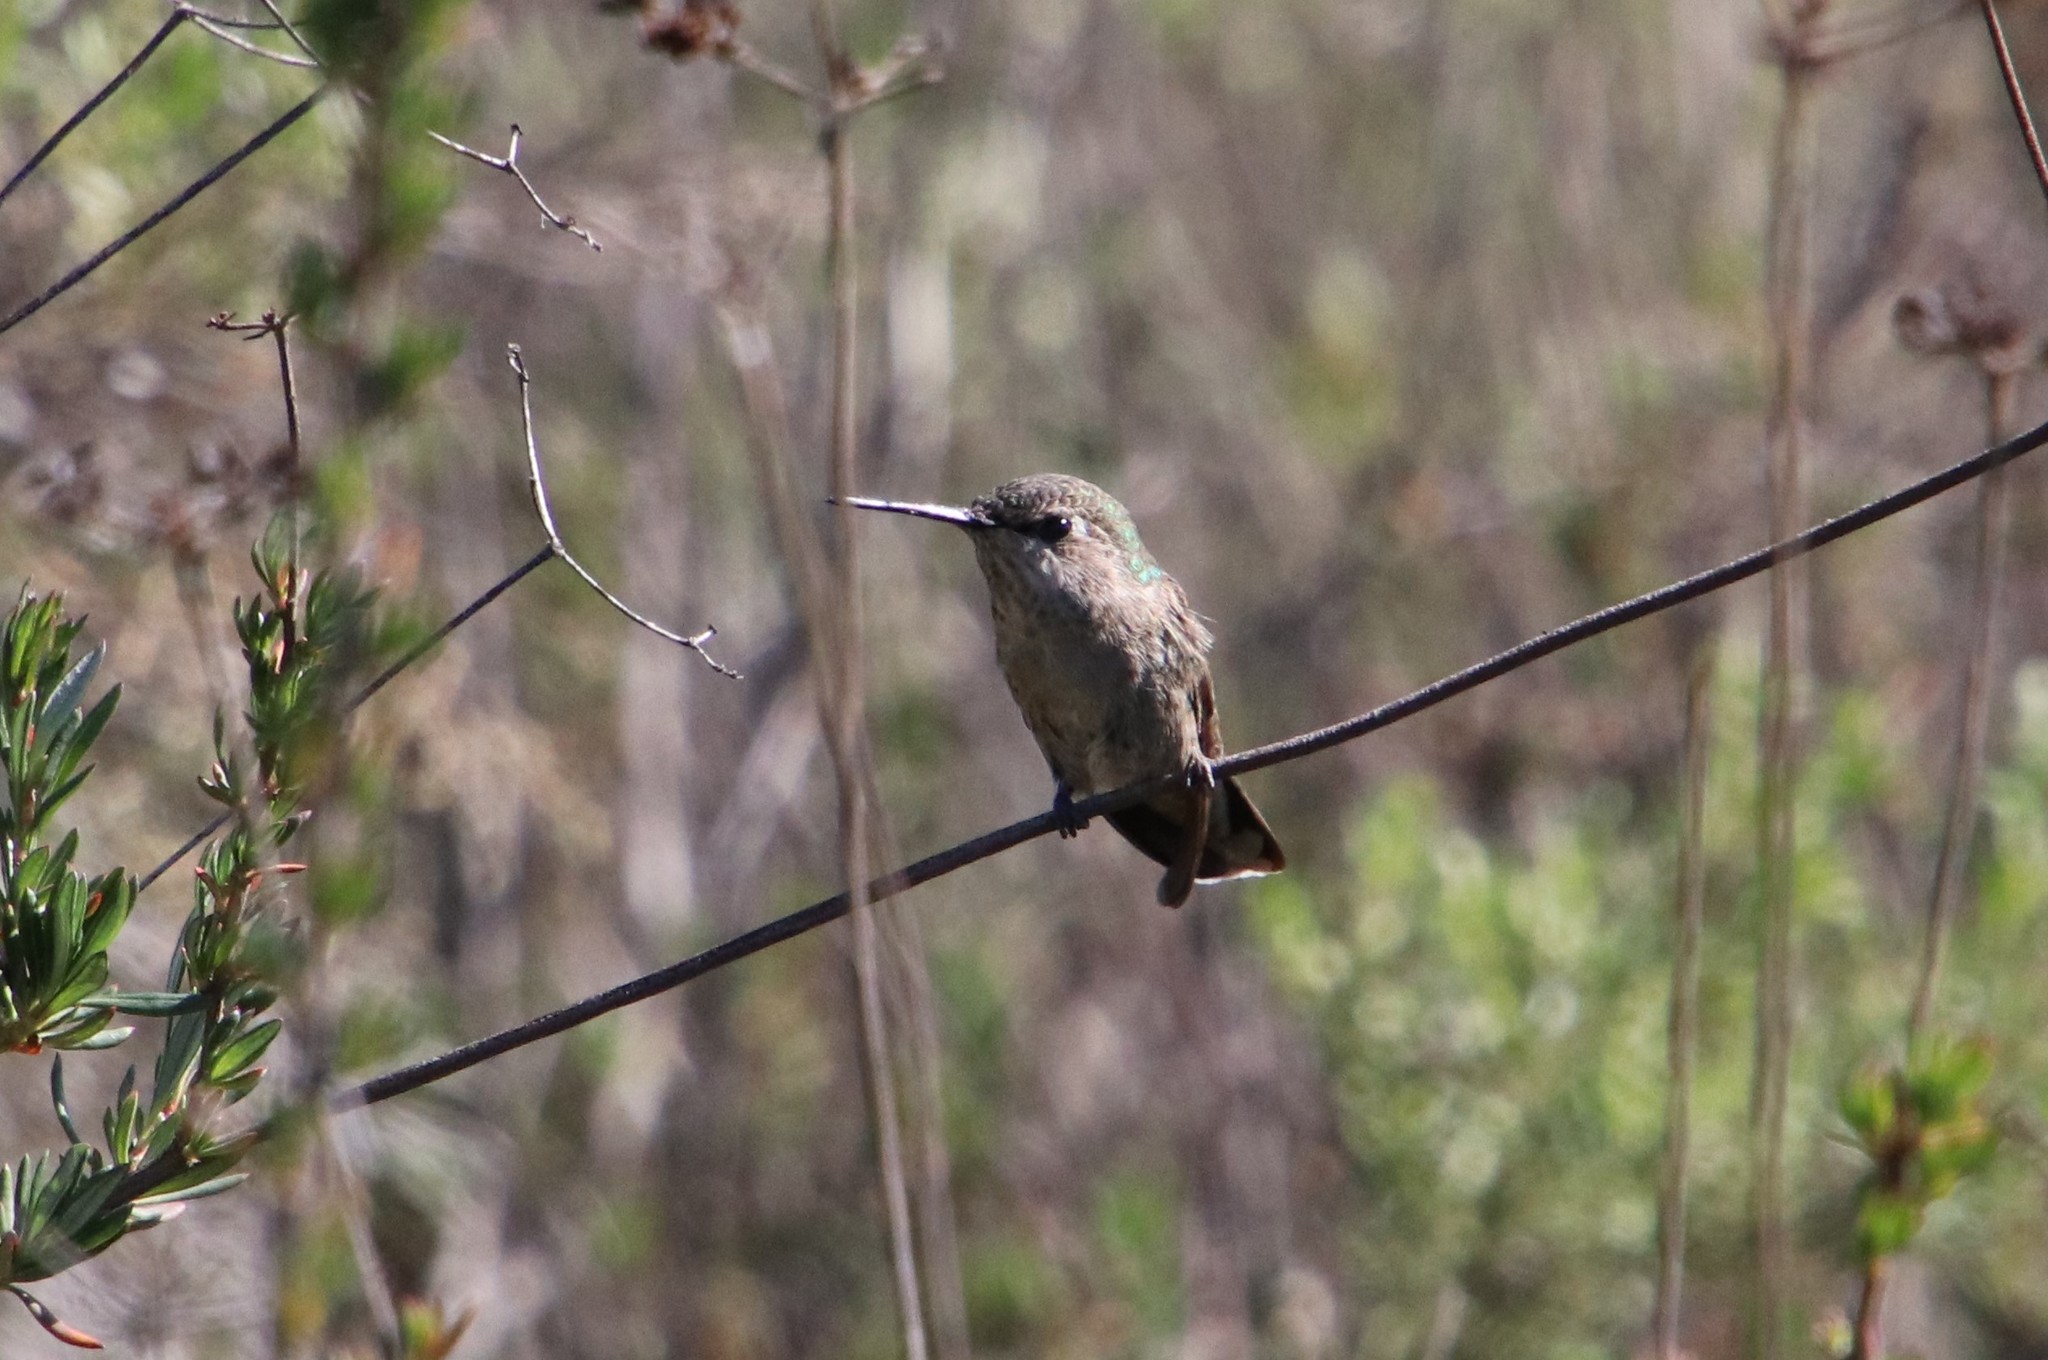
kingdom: Animalia
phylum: Chordata
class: Aves
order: Apodiformes
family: Trochilidae
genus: Calypte
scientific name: Calypte anna
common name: Anna's hummingbird
